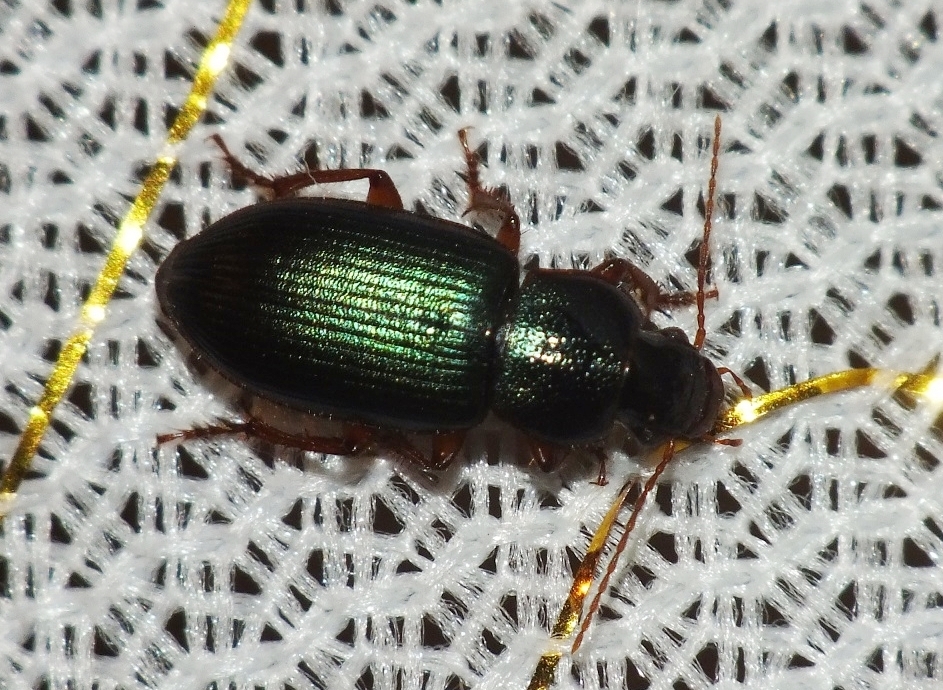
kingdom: Animalia
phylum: Arthropoda
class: Insecta
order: Coleoptera
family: Carabidae
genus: Ophonus
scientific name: Ophonus azureus
